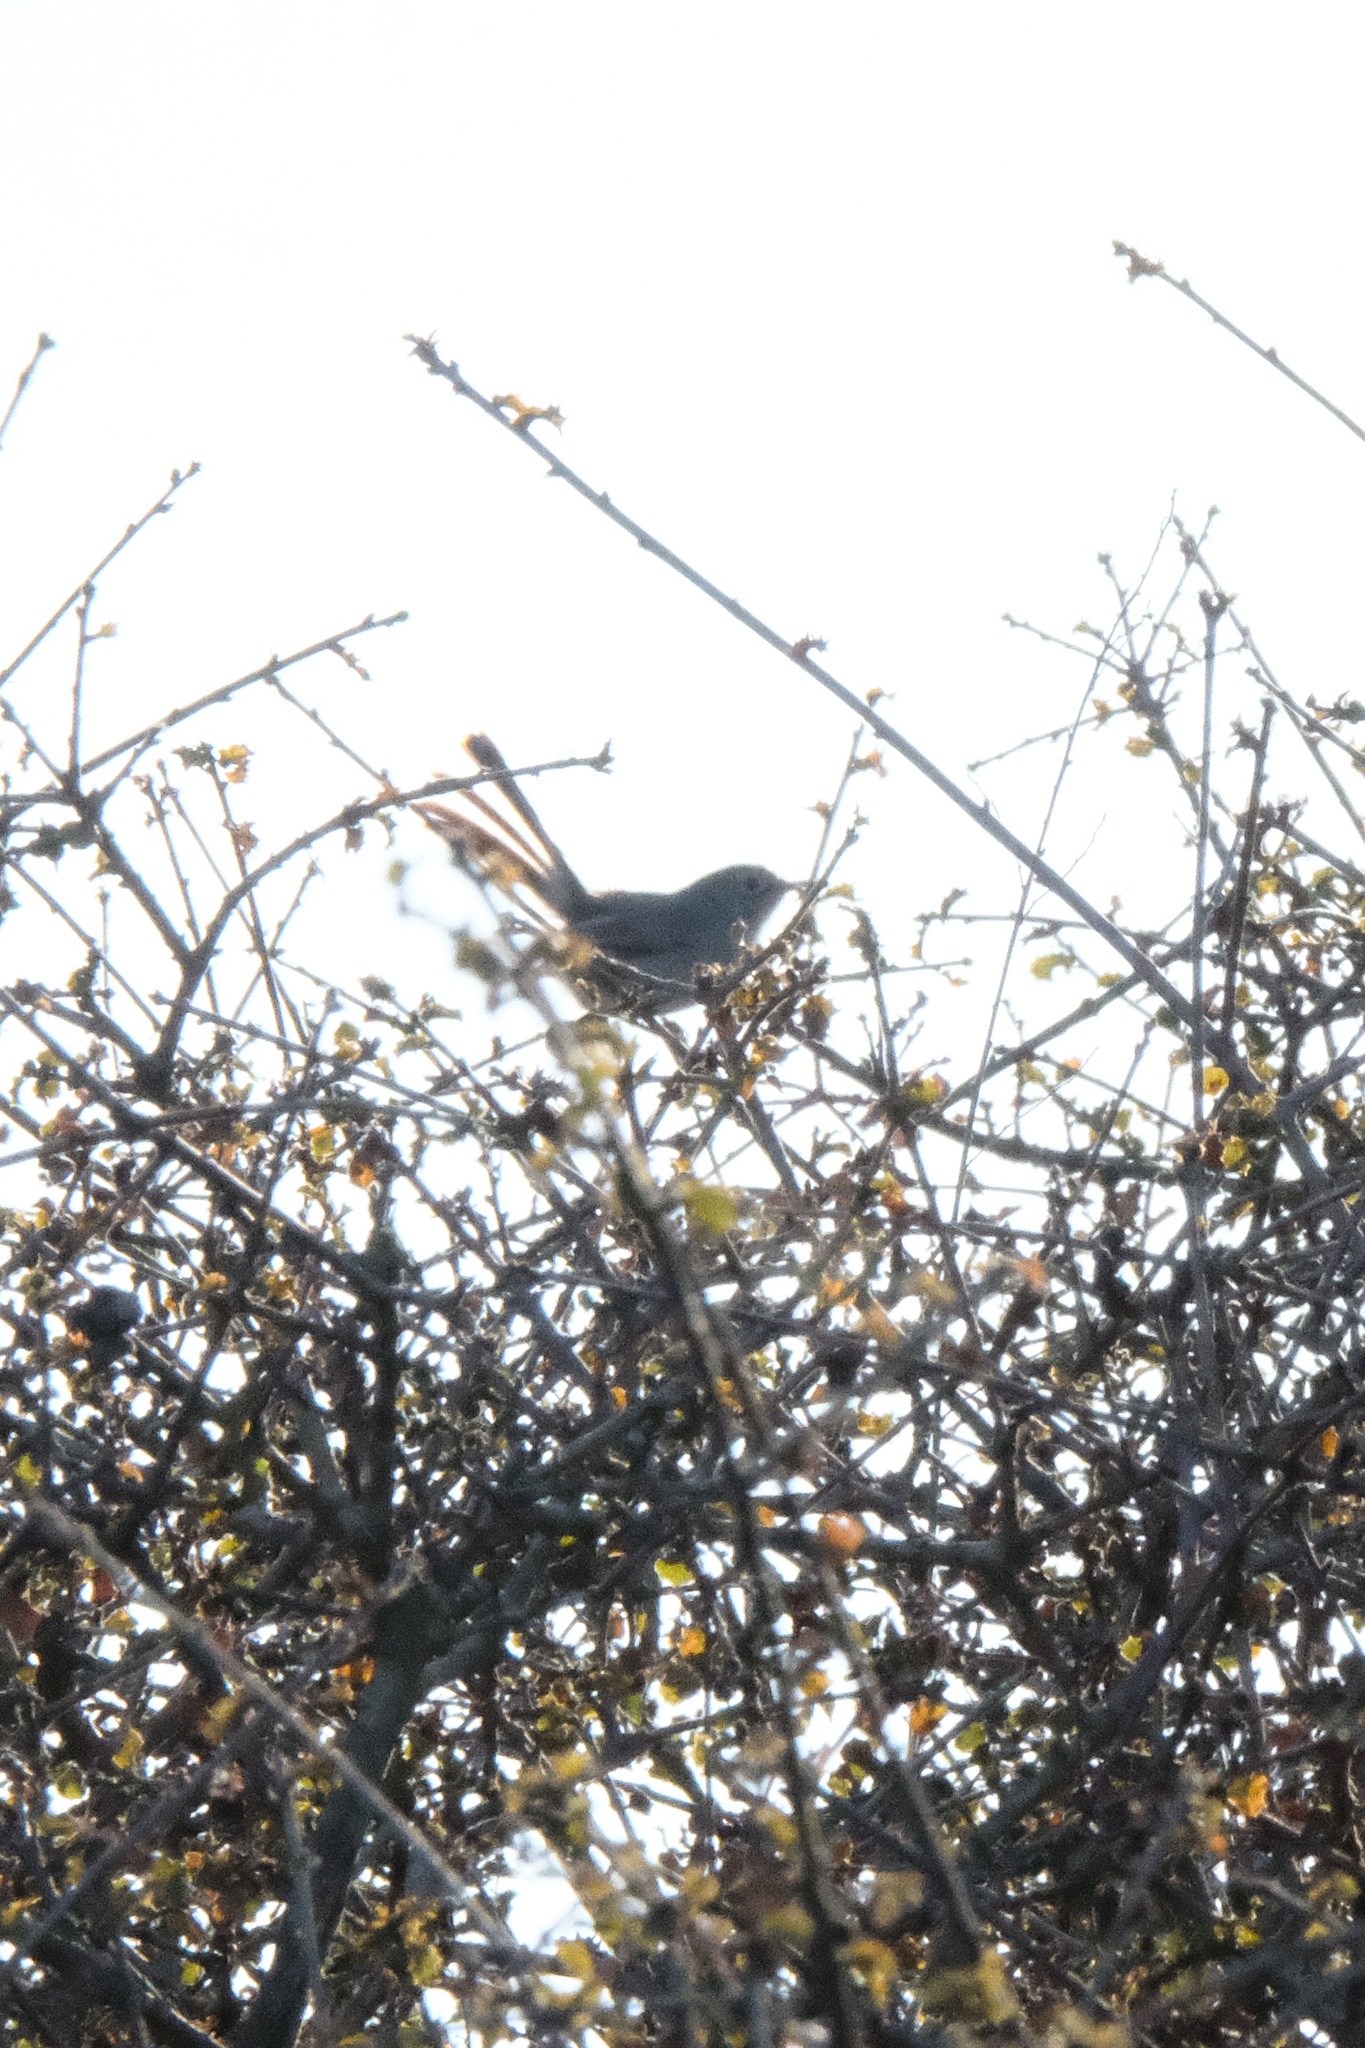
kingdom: Animalia
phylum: Chordata
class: Aves
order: Passeriformes
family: Polioptilidae
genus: Polioptila
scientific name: Polioptila caerulea
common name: Blue-gray gnatcatcher
